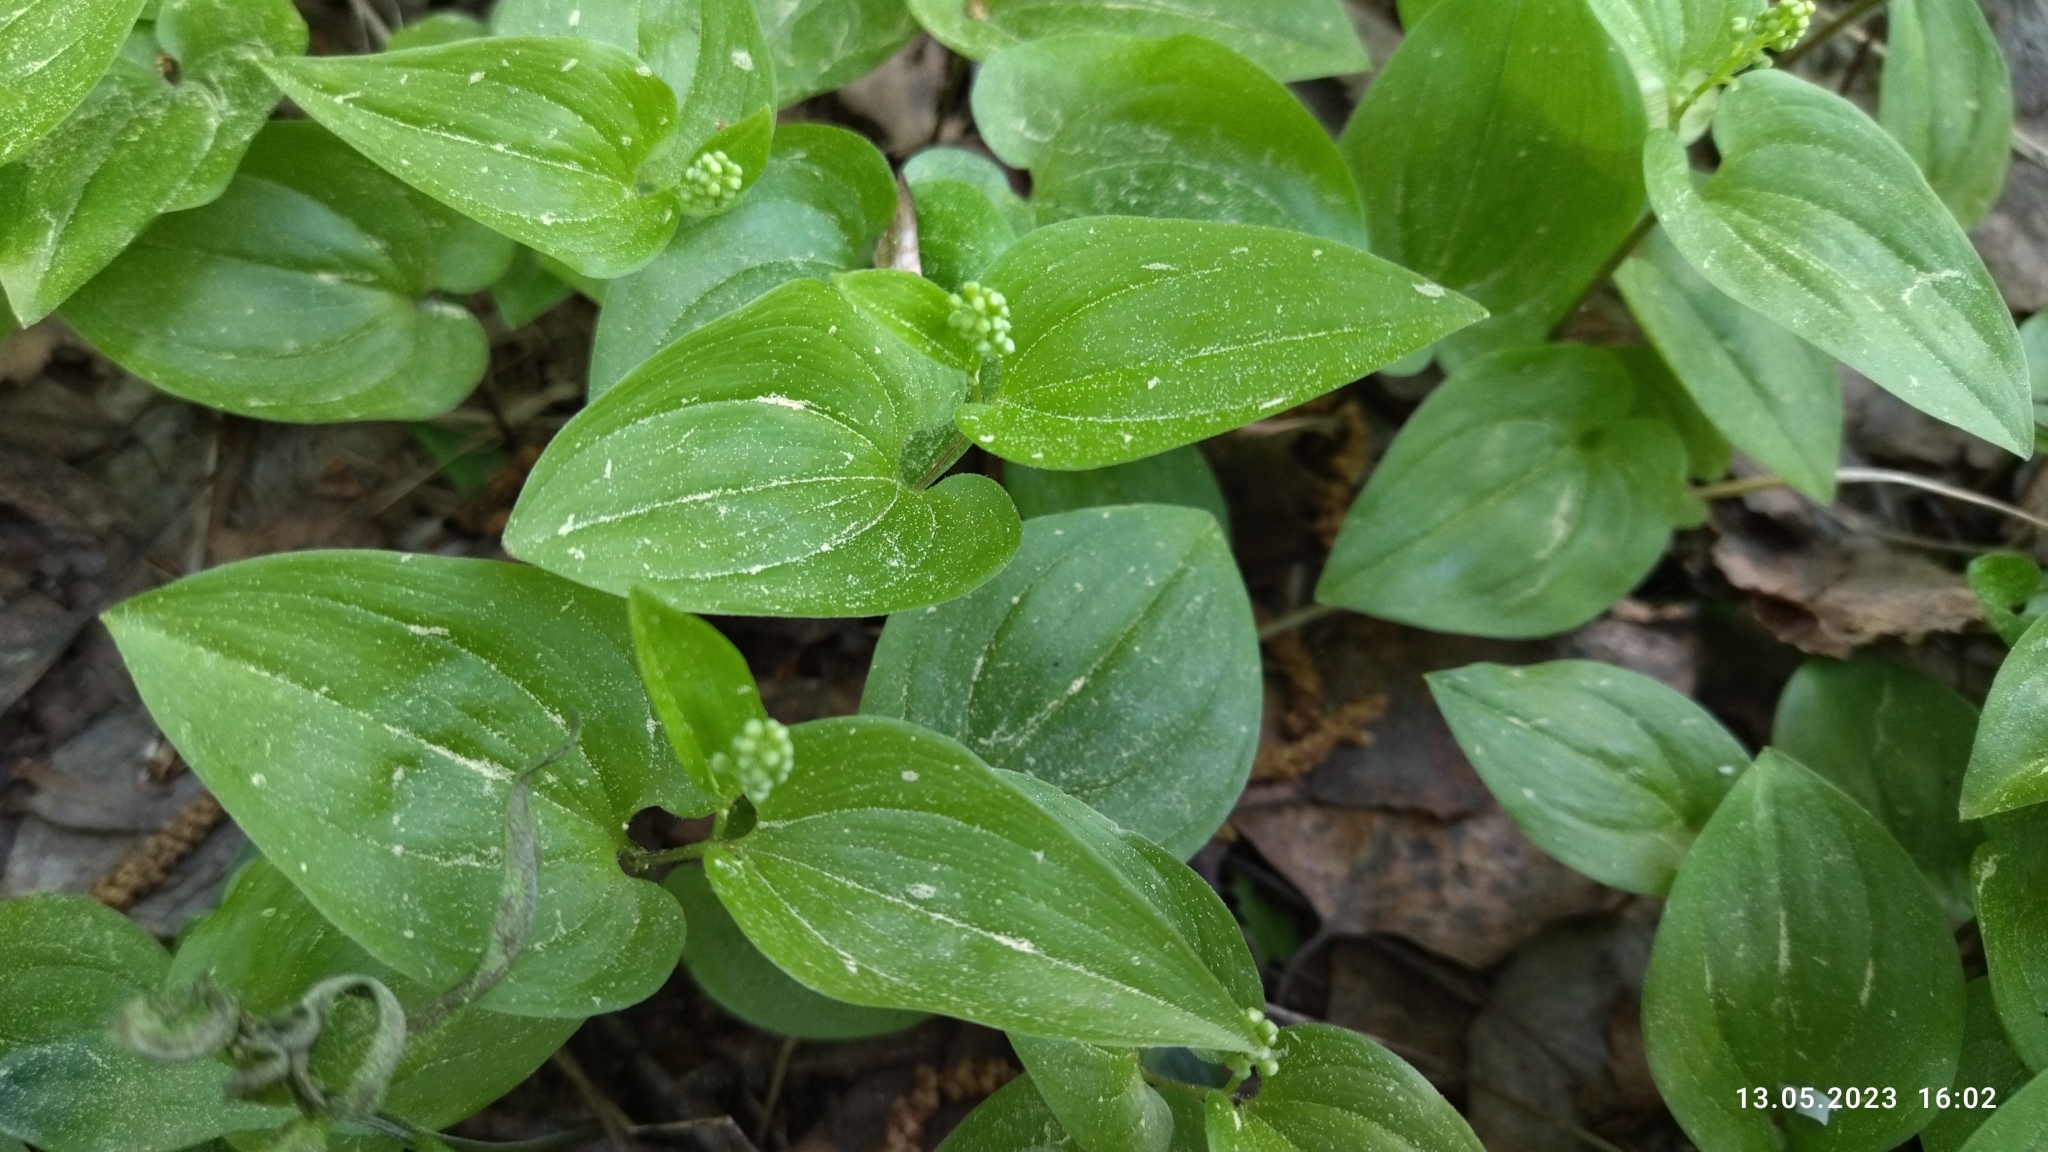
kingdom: Plantae
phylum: Tracheophyta
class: Liliopsida
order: Asparagales
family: Asparagaceae
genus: Maianthemum
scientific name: Maianthemum bifolium
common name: May lily
